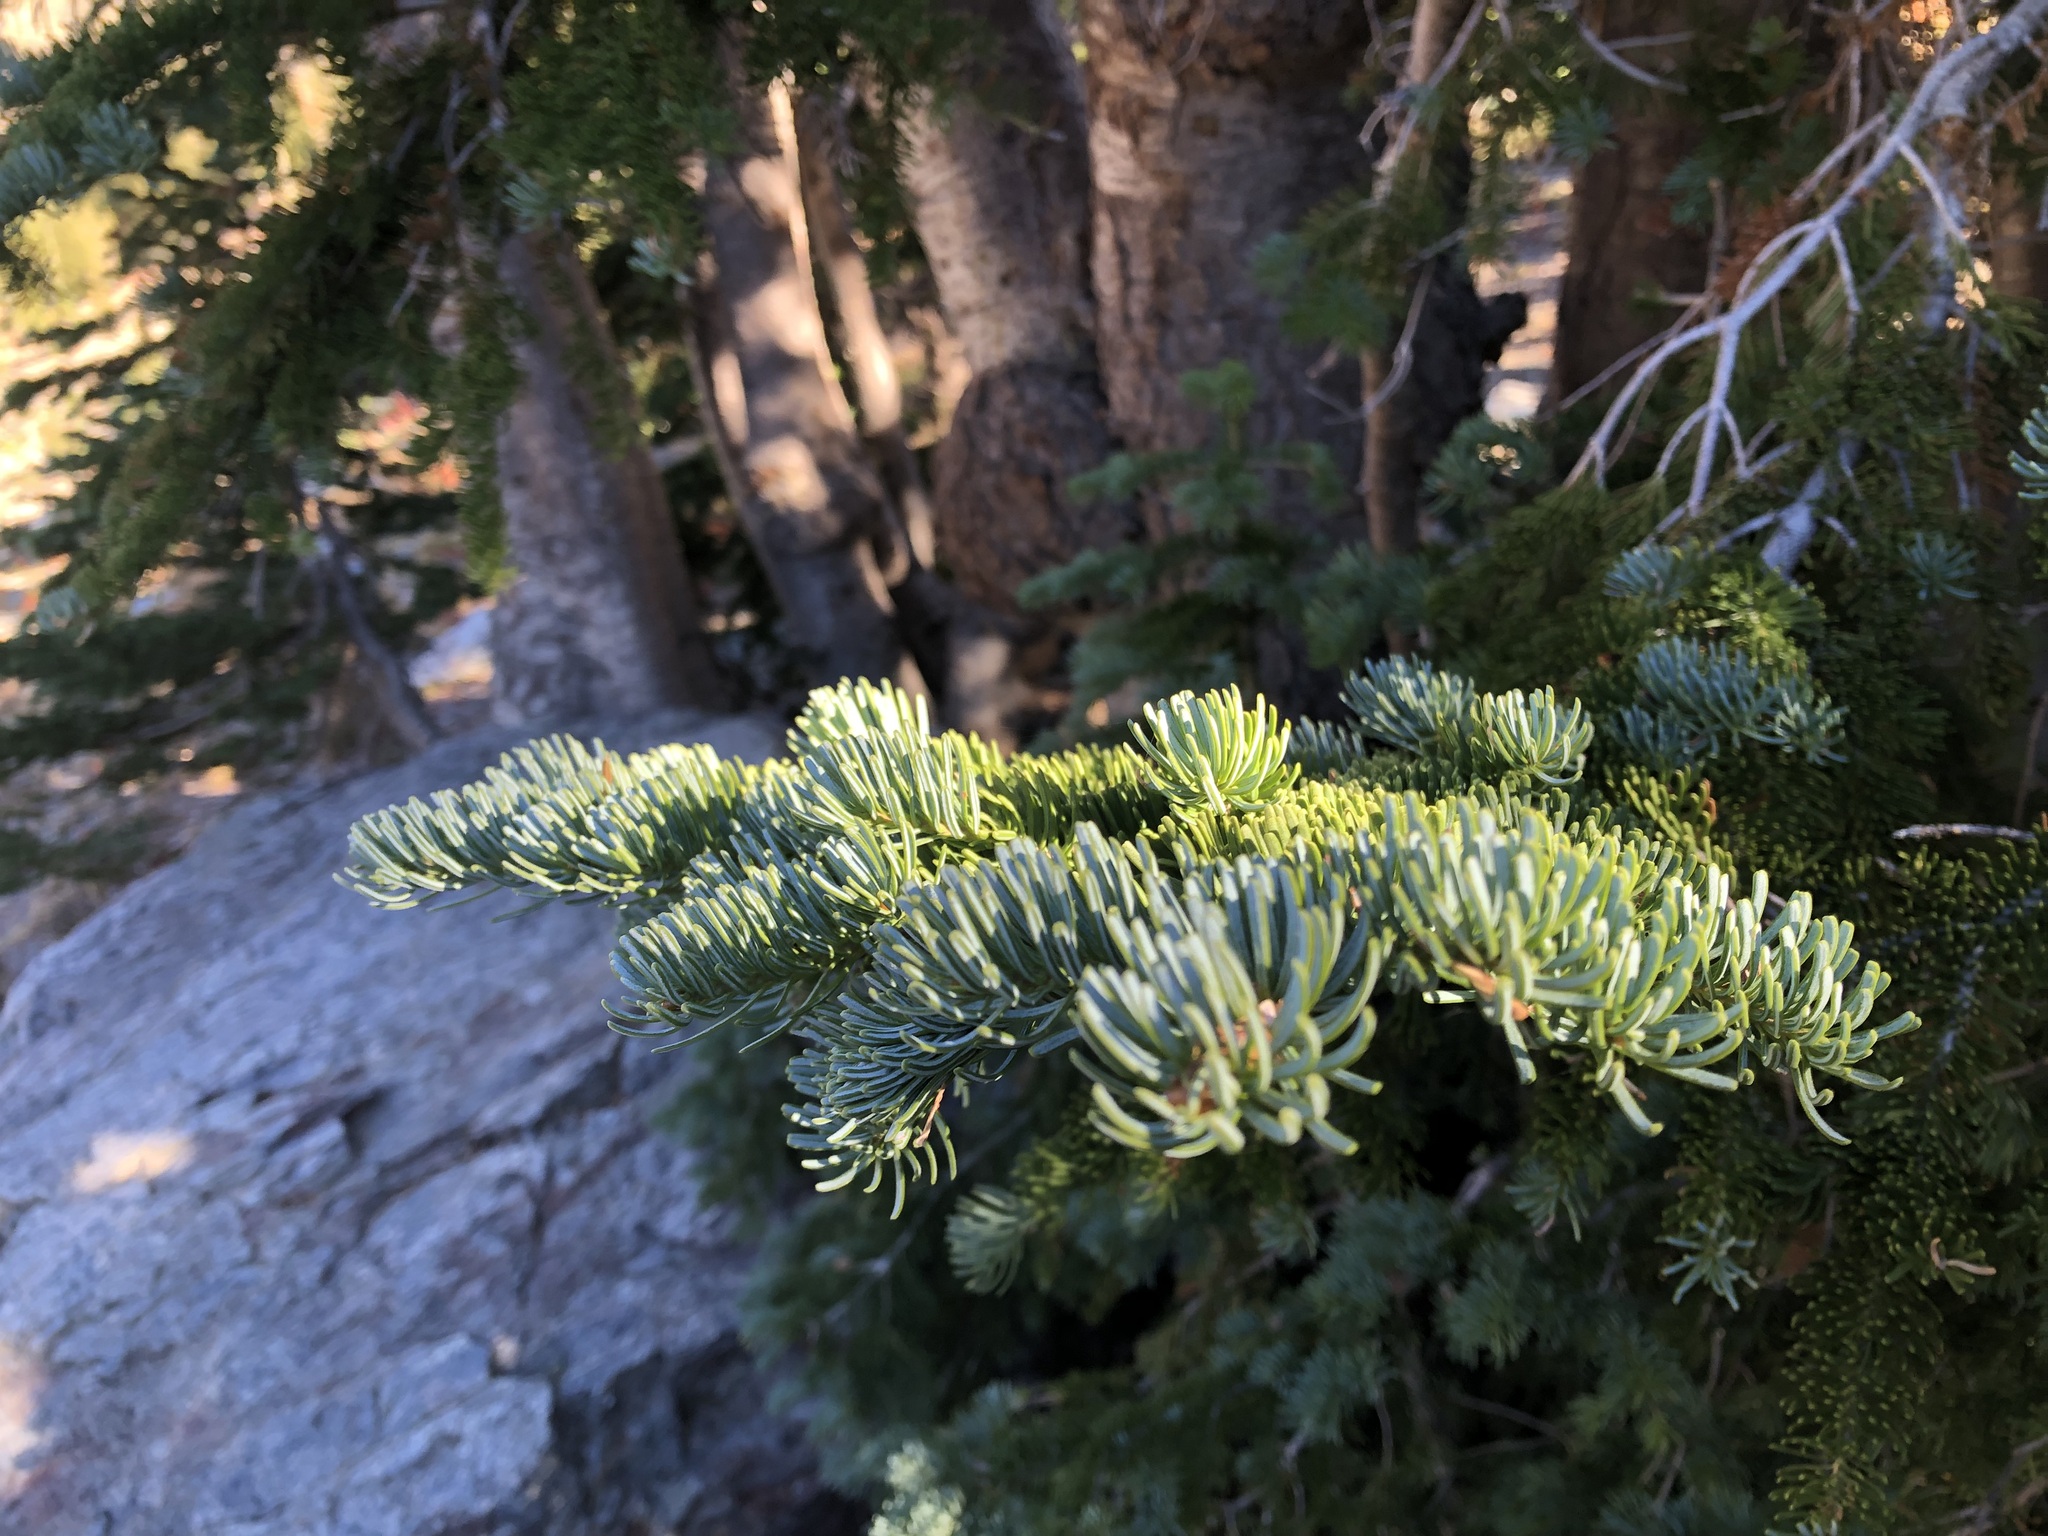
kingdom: Plantae
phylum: Tracheophyta
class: Pinopsida
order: Pinales
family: Pinaceae
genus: Abies
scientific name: Abies lasiocarpa
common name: Subalpine fir
